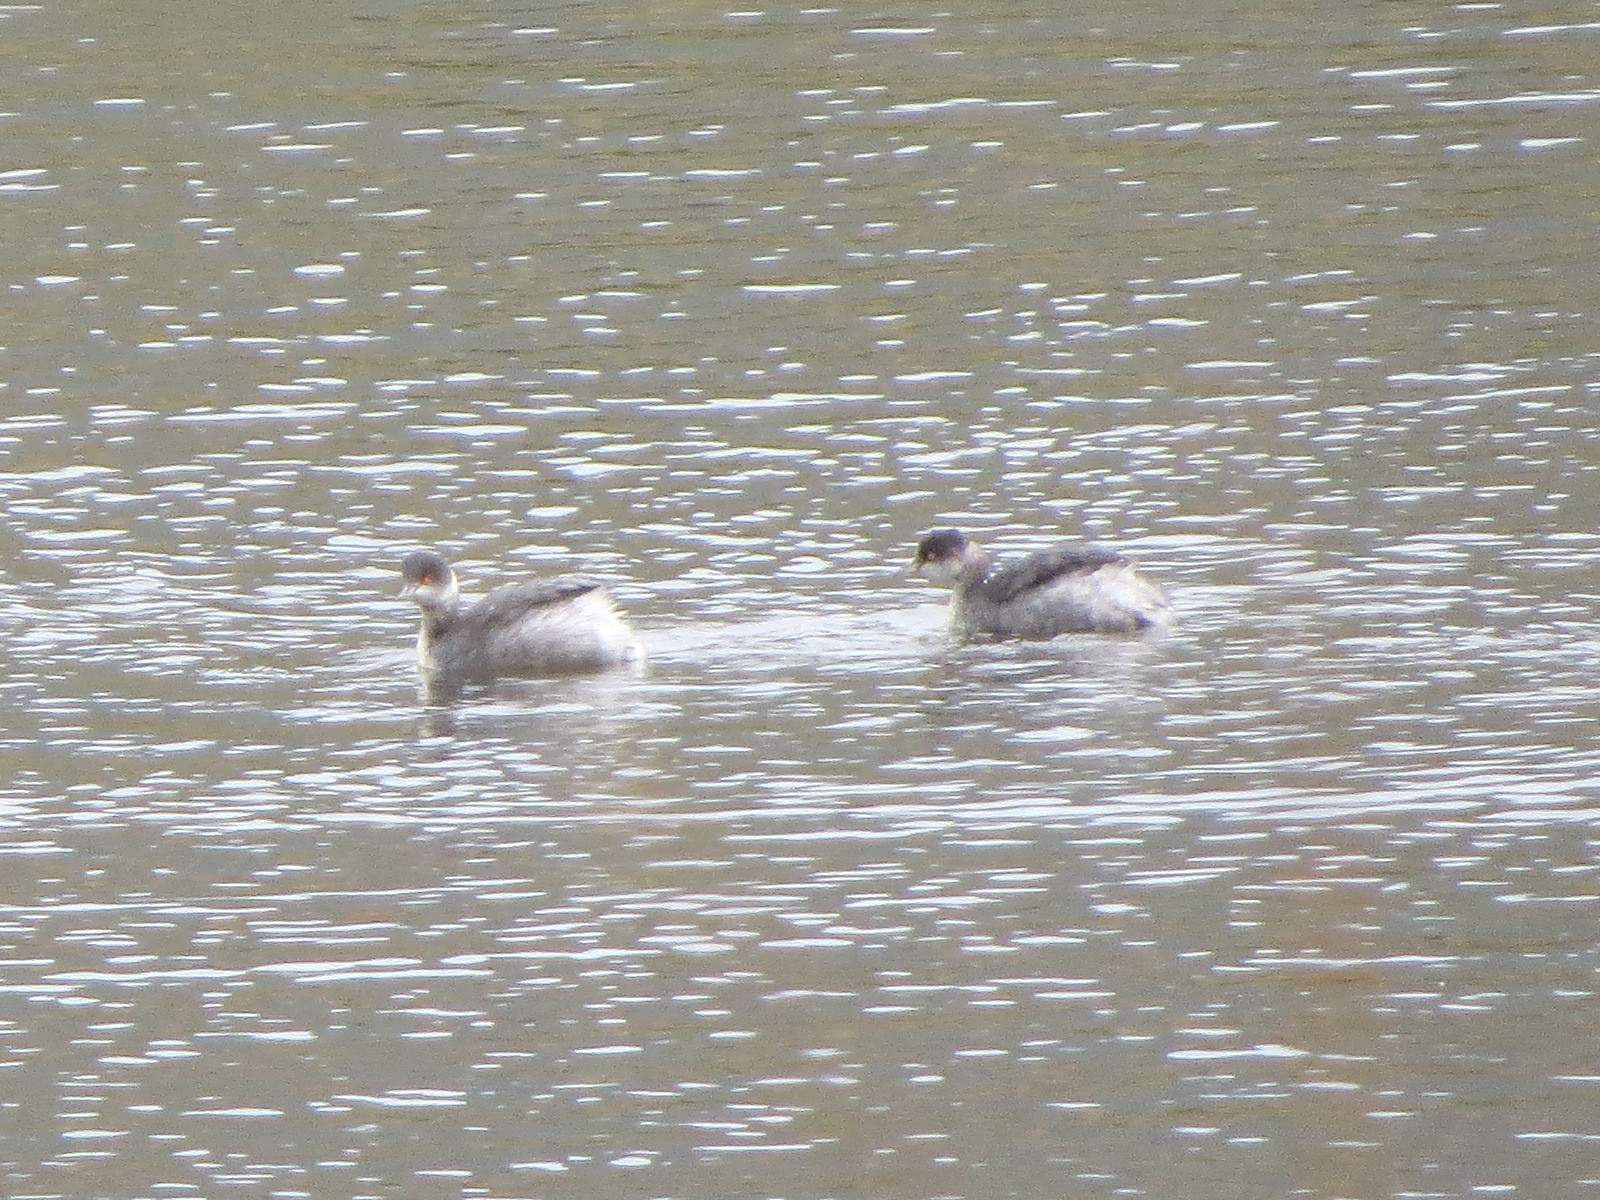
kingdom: Animalia
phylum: Chordata
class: Aves
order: Podicipediformes
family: Podicipedidae
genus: Podiceps
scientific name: Podiceps nigricollis
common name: Black-necked grebe
